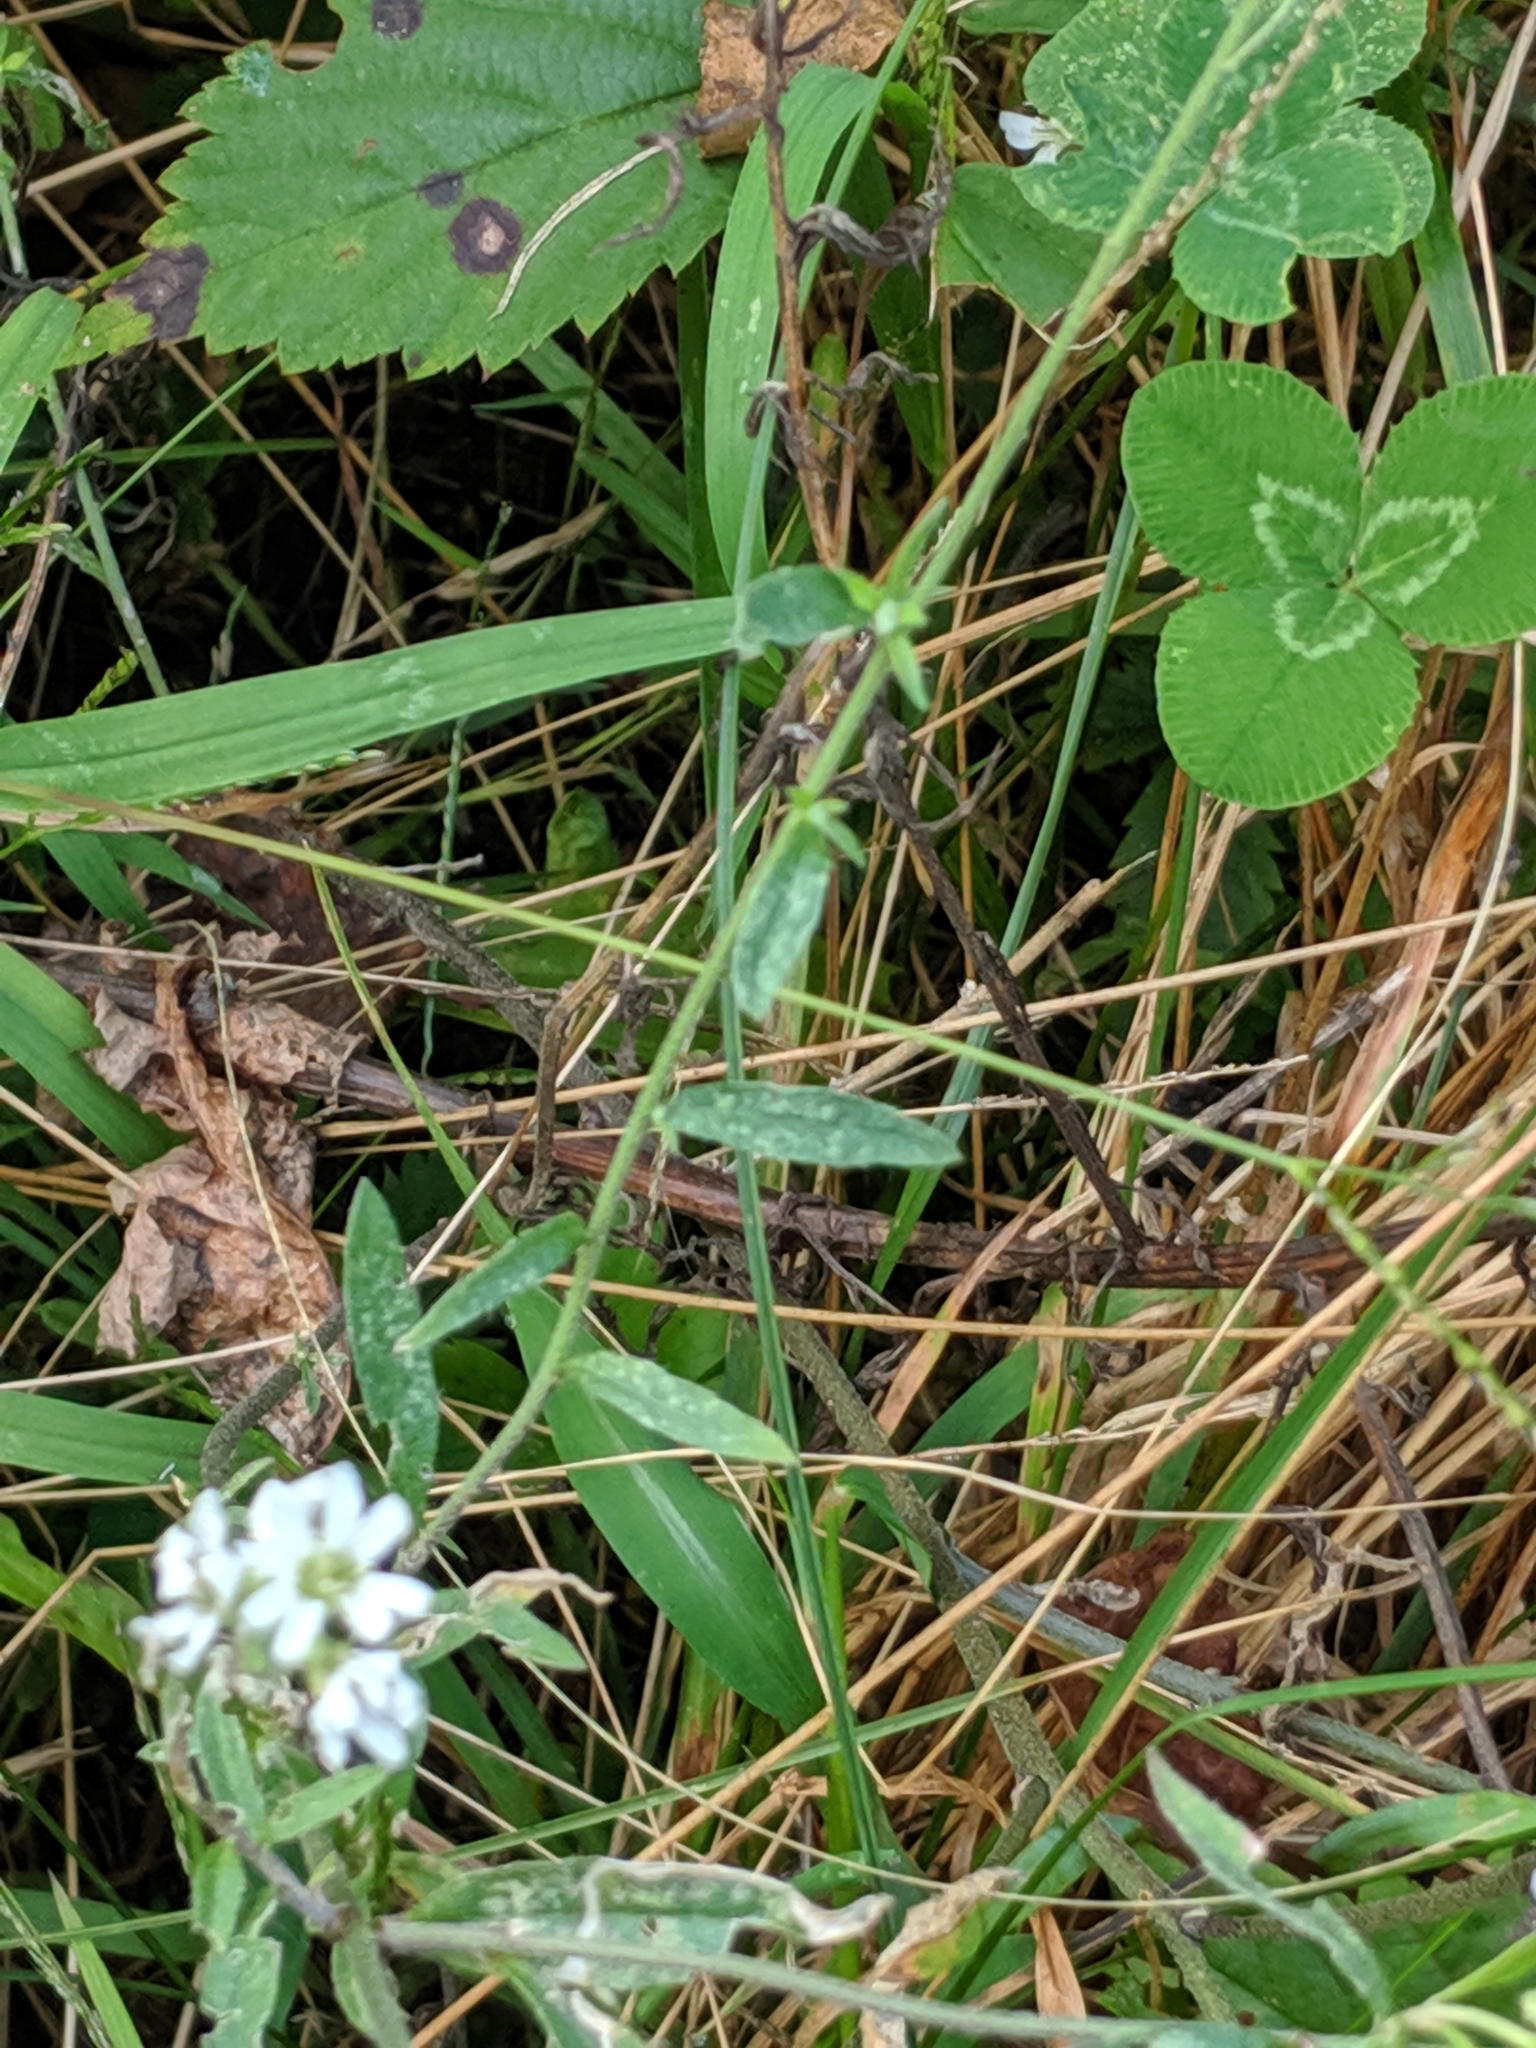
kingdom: Plantae
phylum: Tracheophyta
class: Magnoliopsida
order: Brassicales
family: Brassicaceae
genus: Berteroa
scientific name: Berteroa incana
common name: Hoary alison
